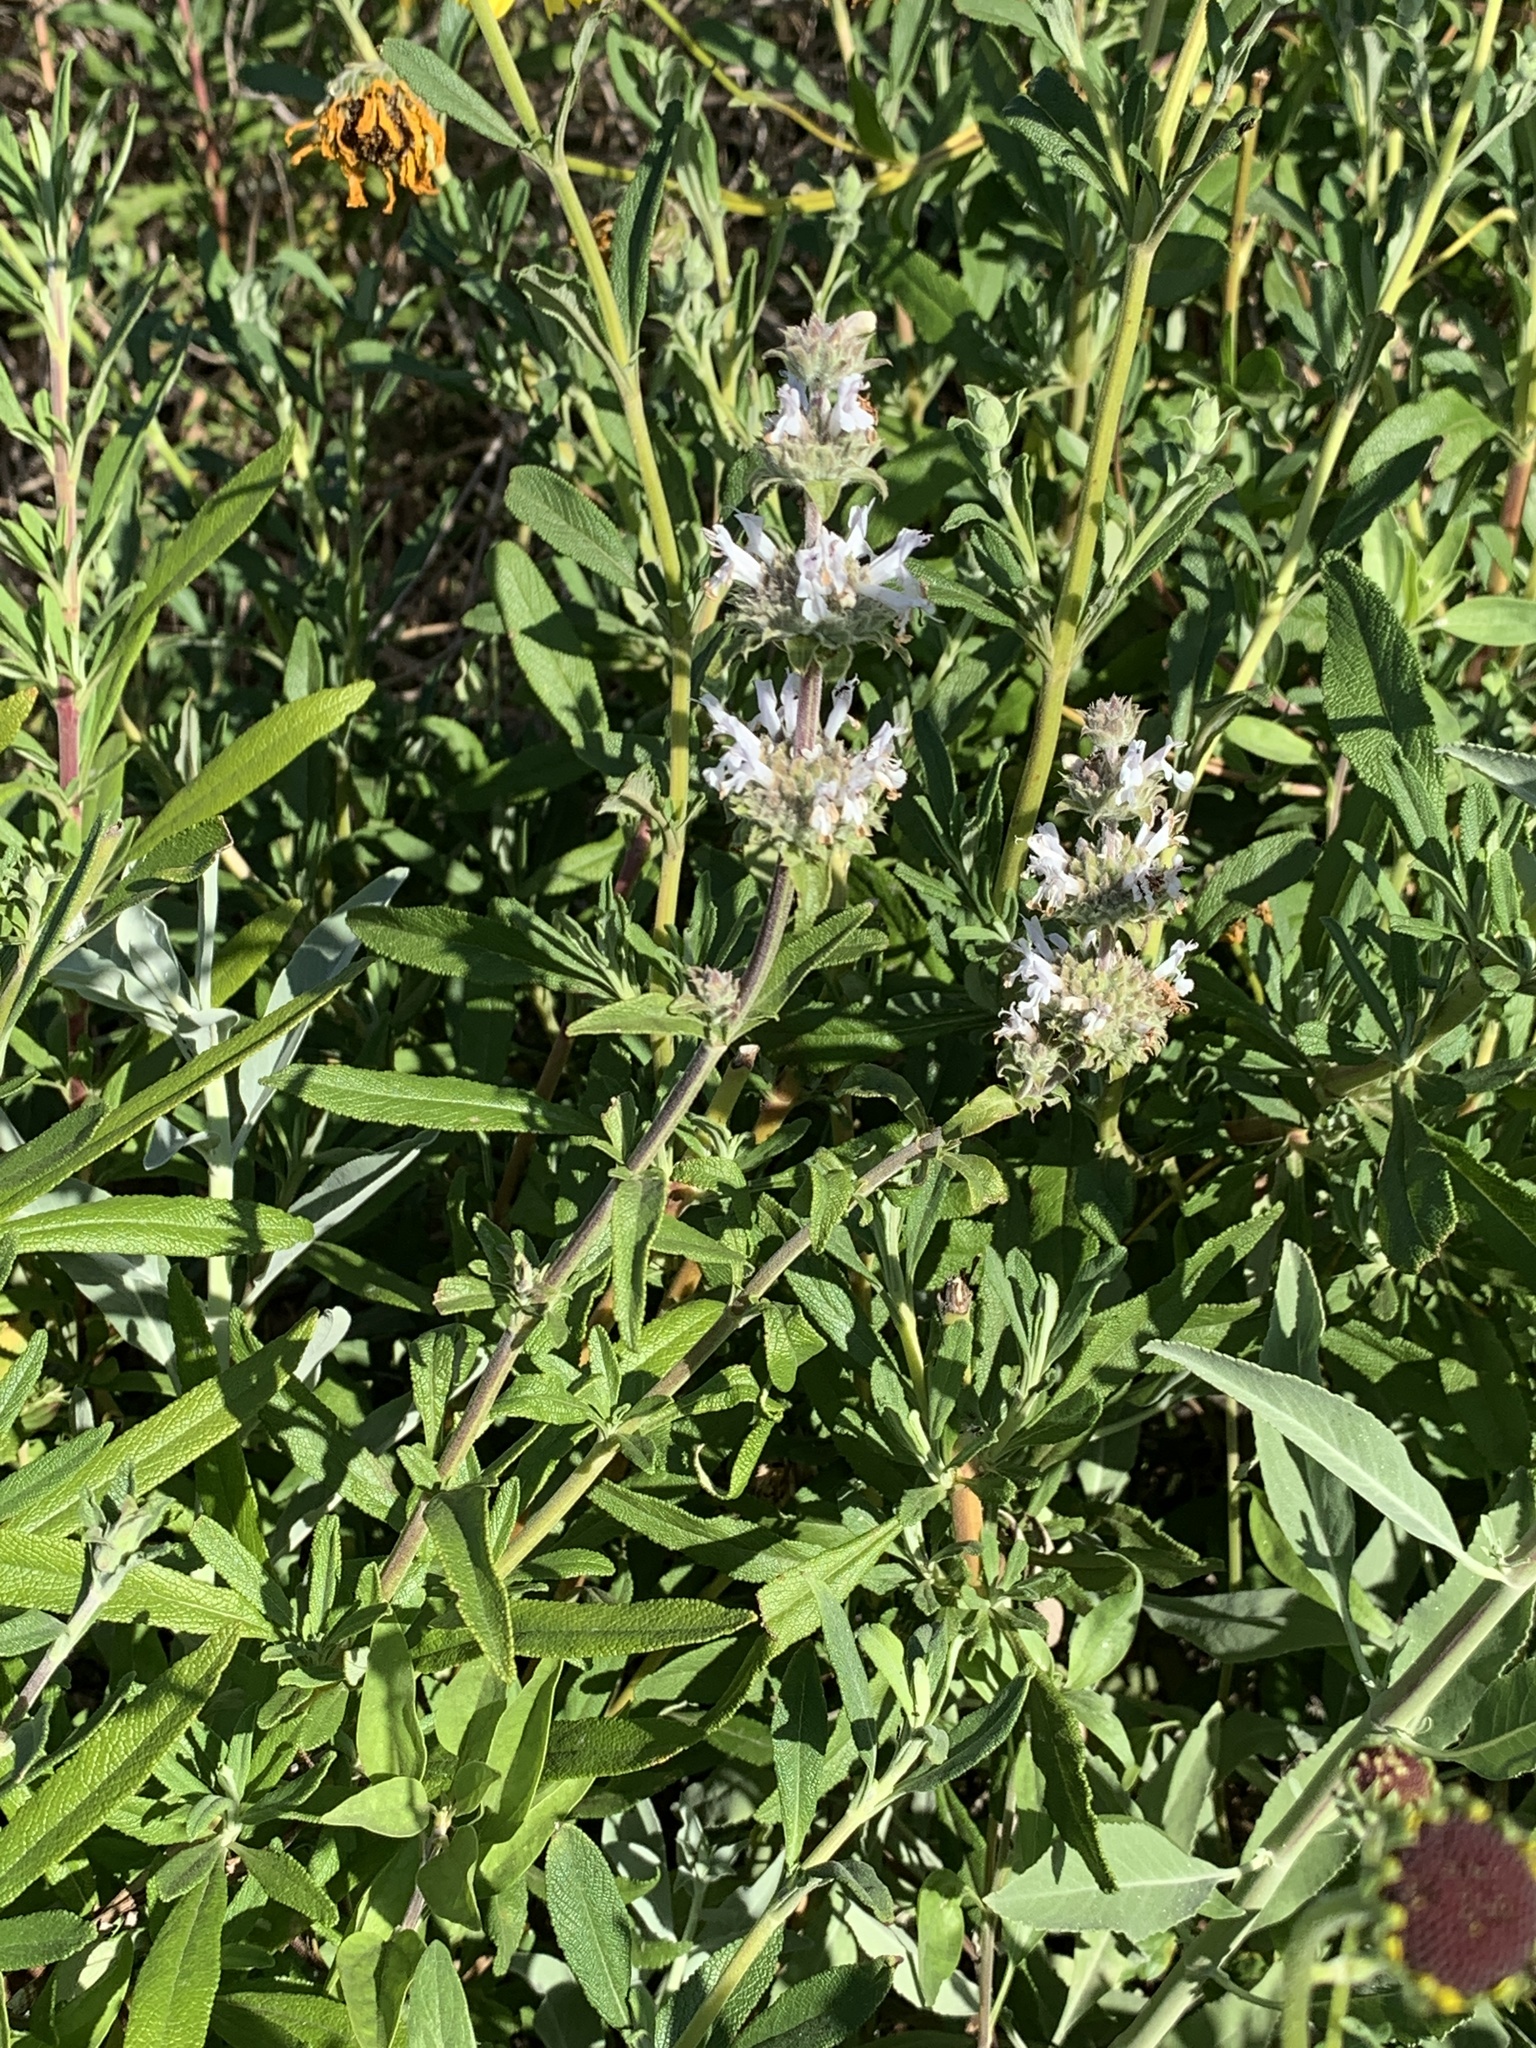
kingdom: Plantae
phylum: Tracheophyta
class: Magnoliopsida
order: Lamiales
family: Lamiaceae
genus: Salvia
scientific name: Salvia mellifera
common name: Black sage
